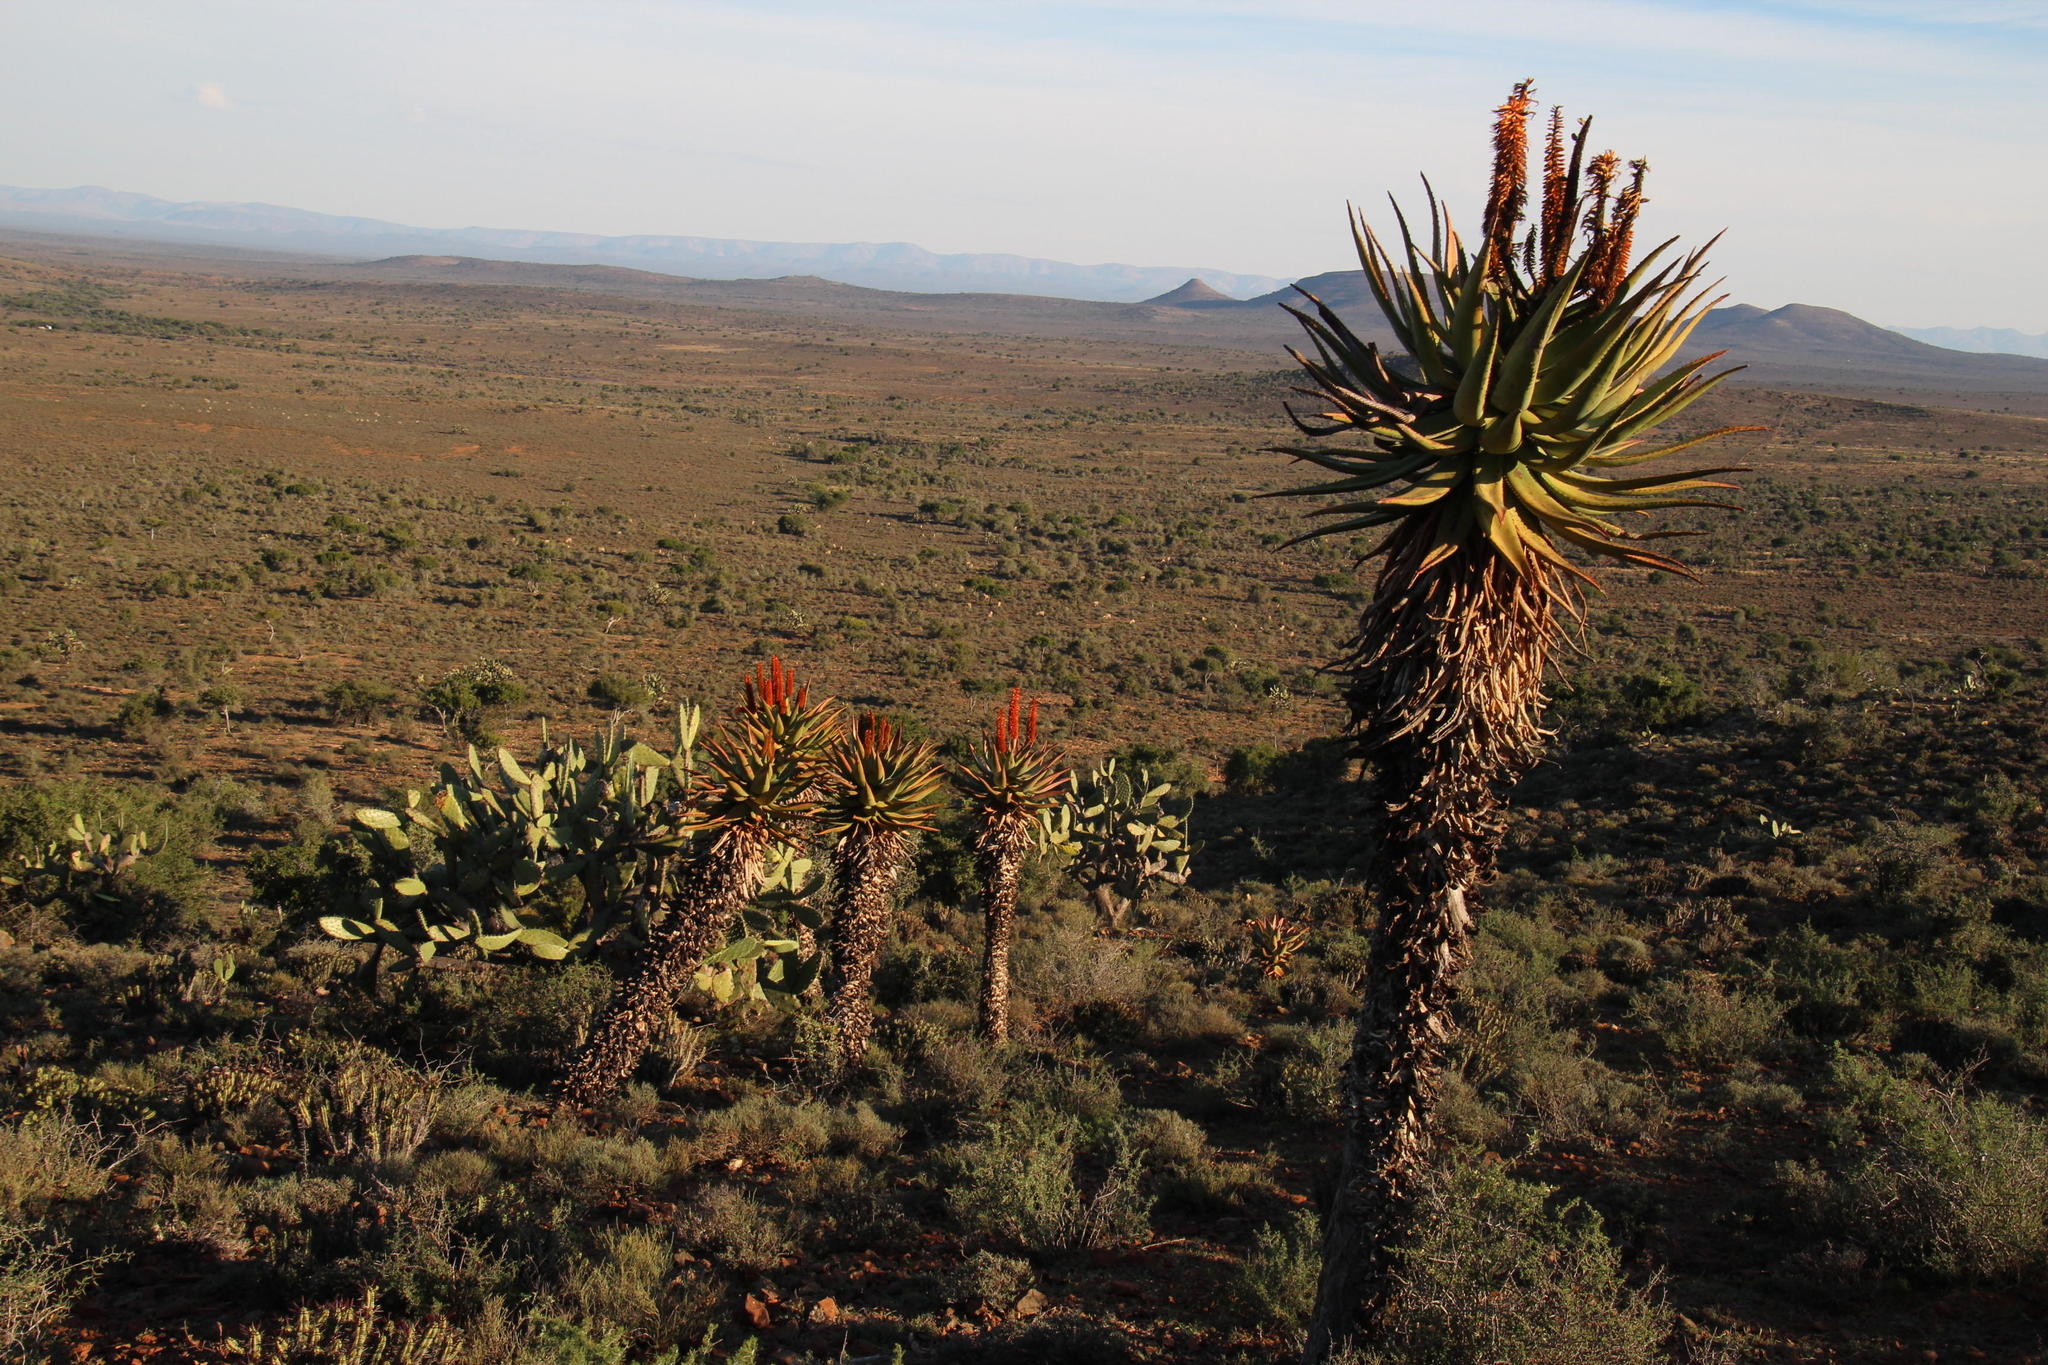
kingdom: Plantae
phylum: Tracheophyta
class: Liliopsida
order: Asparagales
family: Asphodelaceae
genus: Aloe
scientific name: Aloe ferox
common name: Bitter aloe
